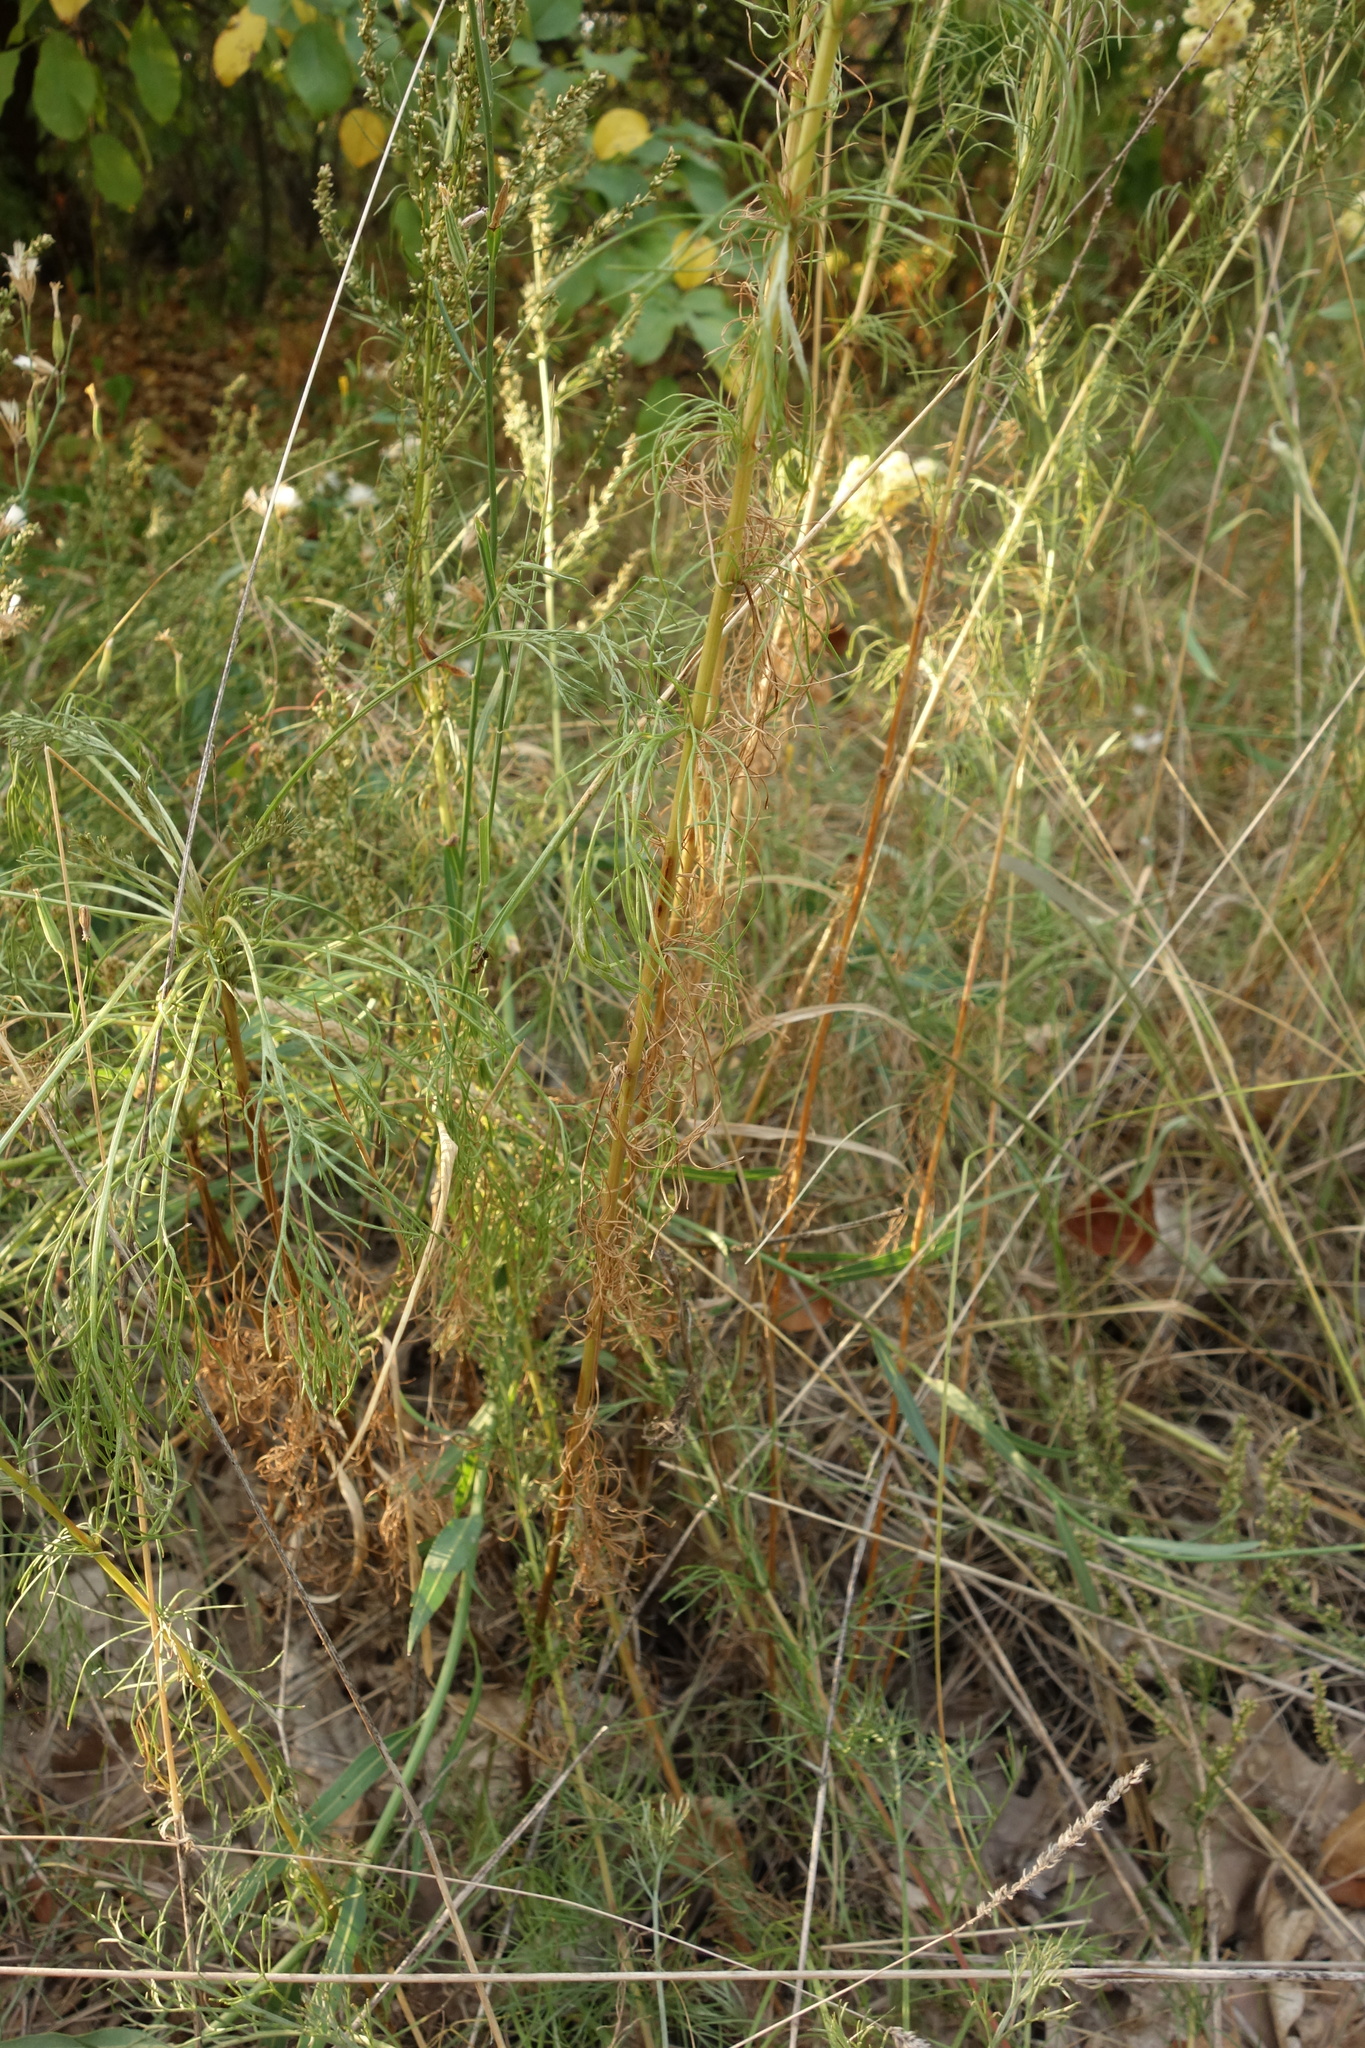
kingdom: Plantae
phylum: Tracheophyta
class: Magnoliopsida
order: Asterales
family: Asteraceae
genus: Artemisia
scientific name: Artemisia campestris
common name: Field wormwood
